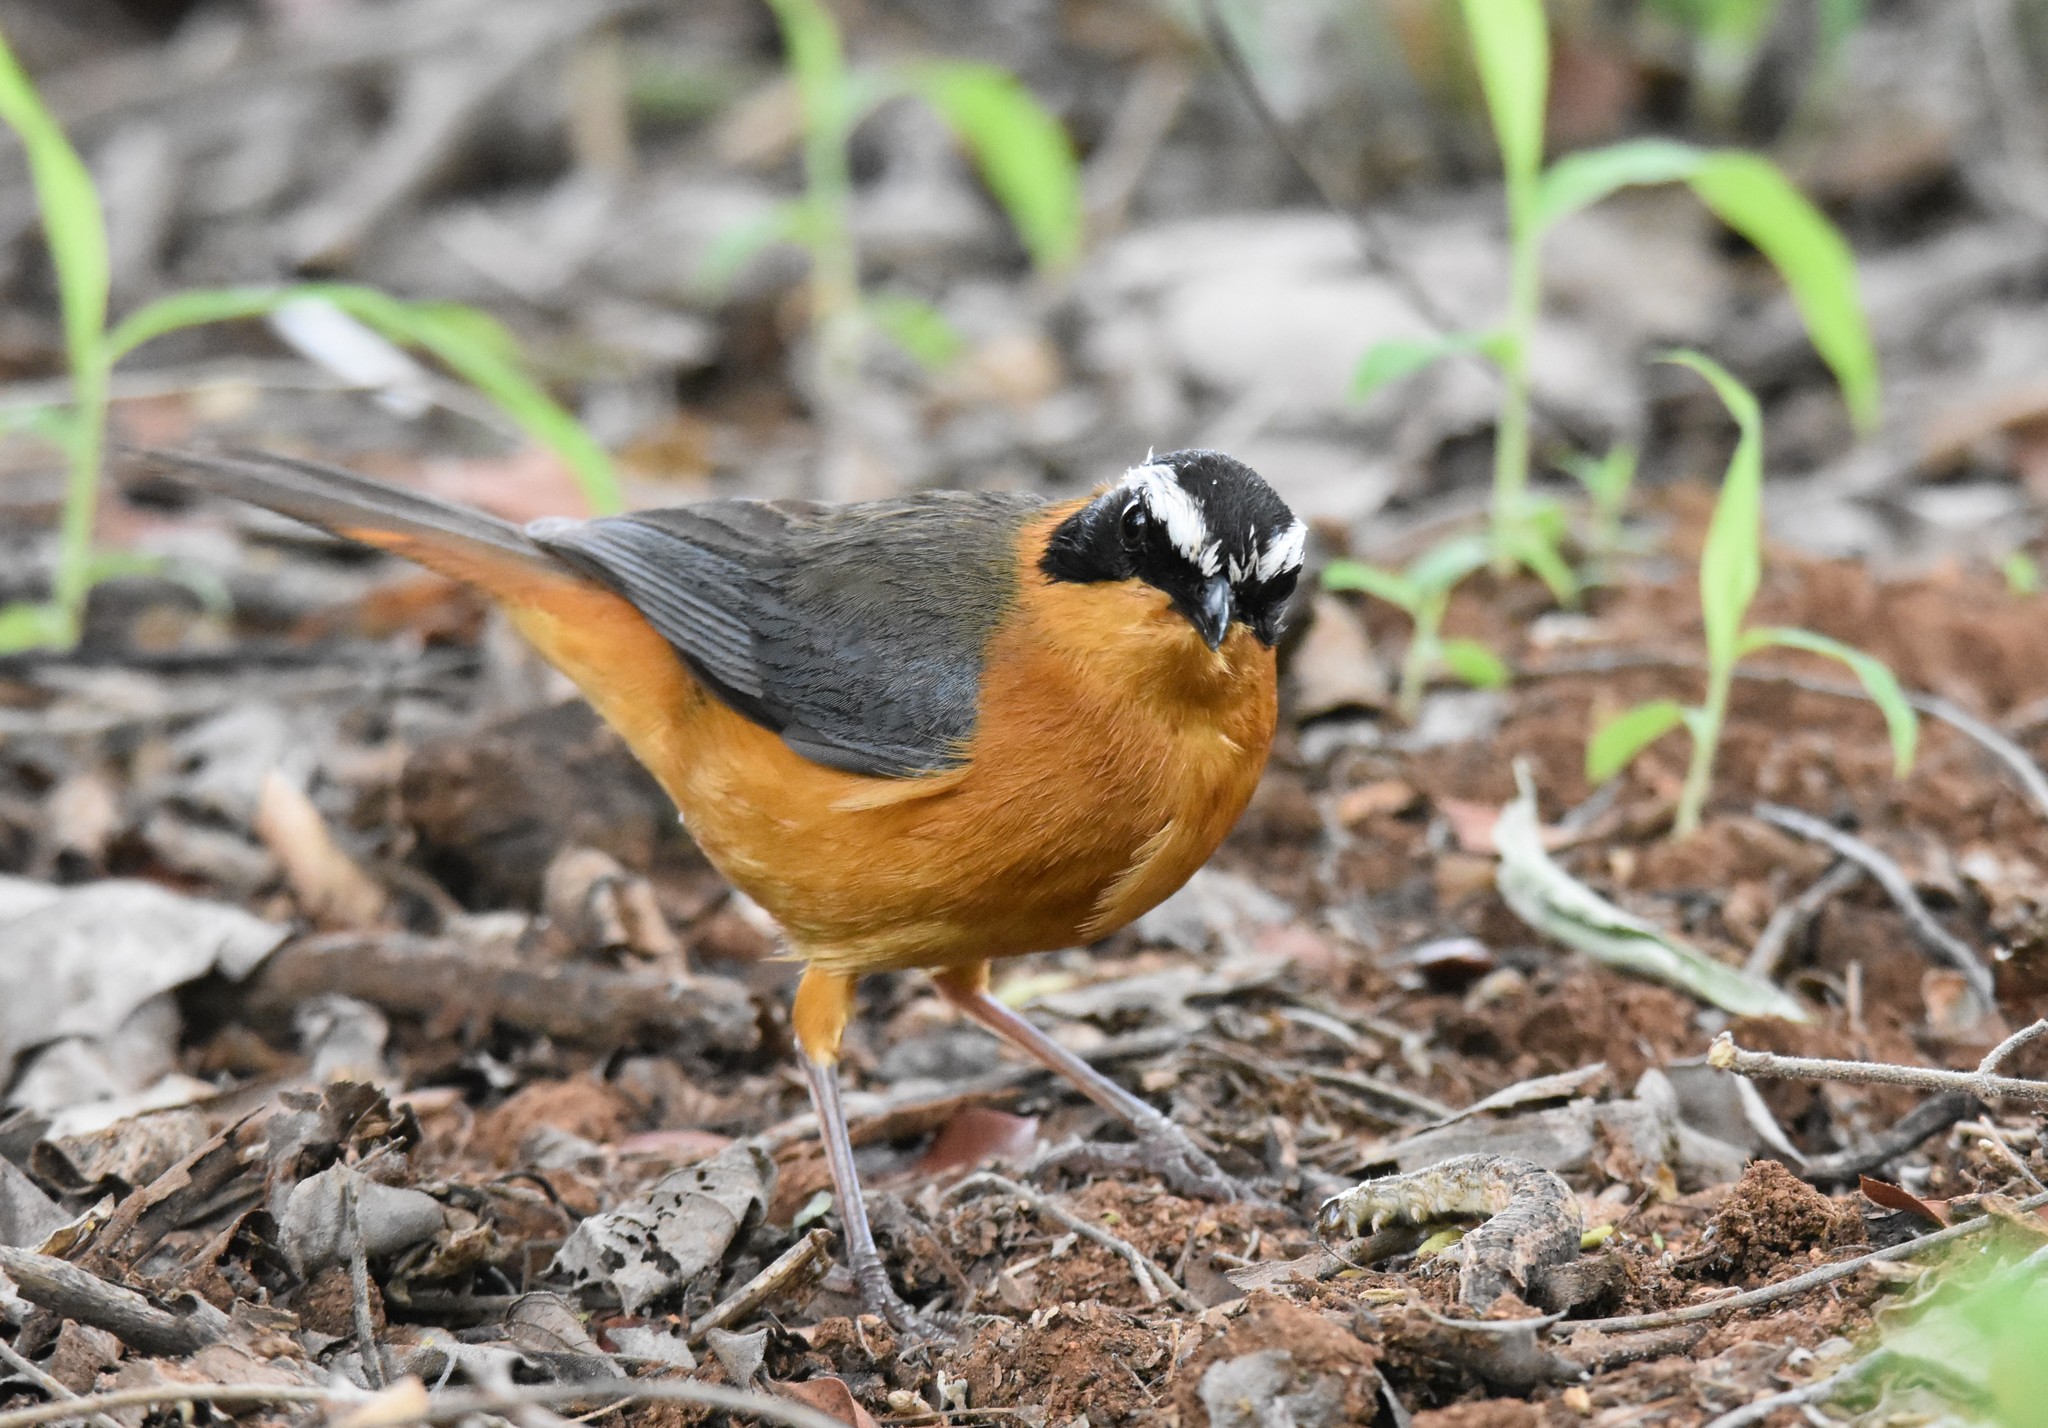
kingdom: Animalia
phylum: Chordata
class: Aves
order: Passeriformes
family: Muscicapidae
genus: Cossypha
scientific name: Cossypha heuglini
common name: White-browed robin-chat
